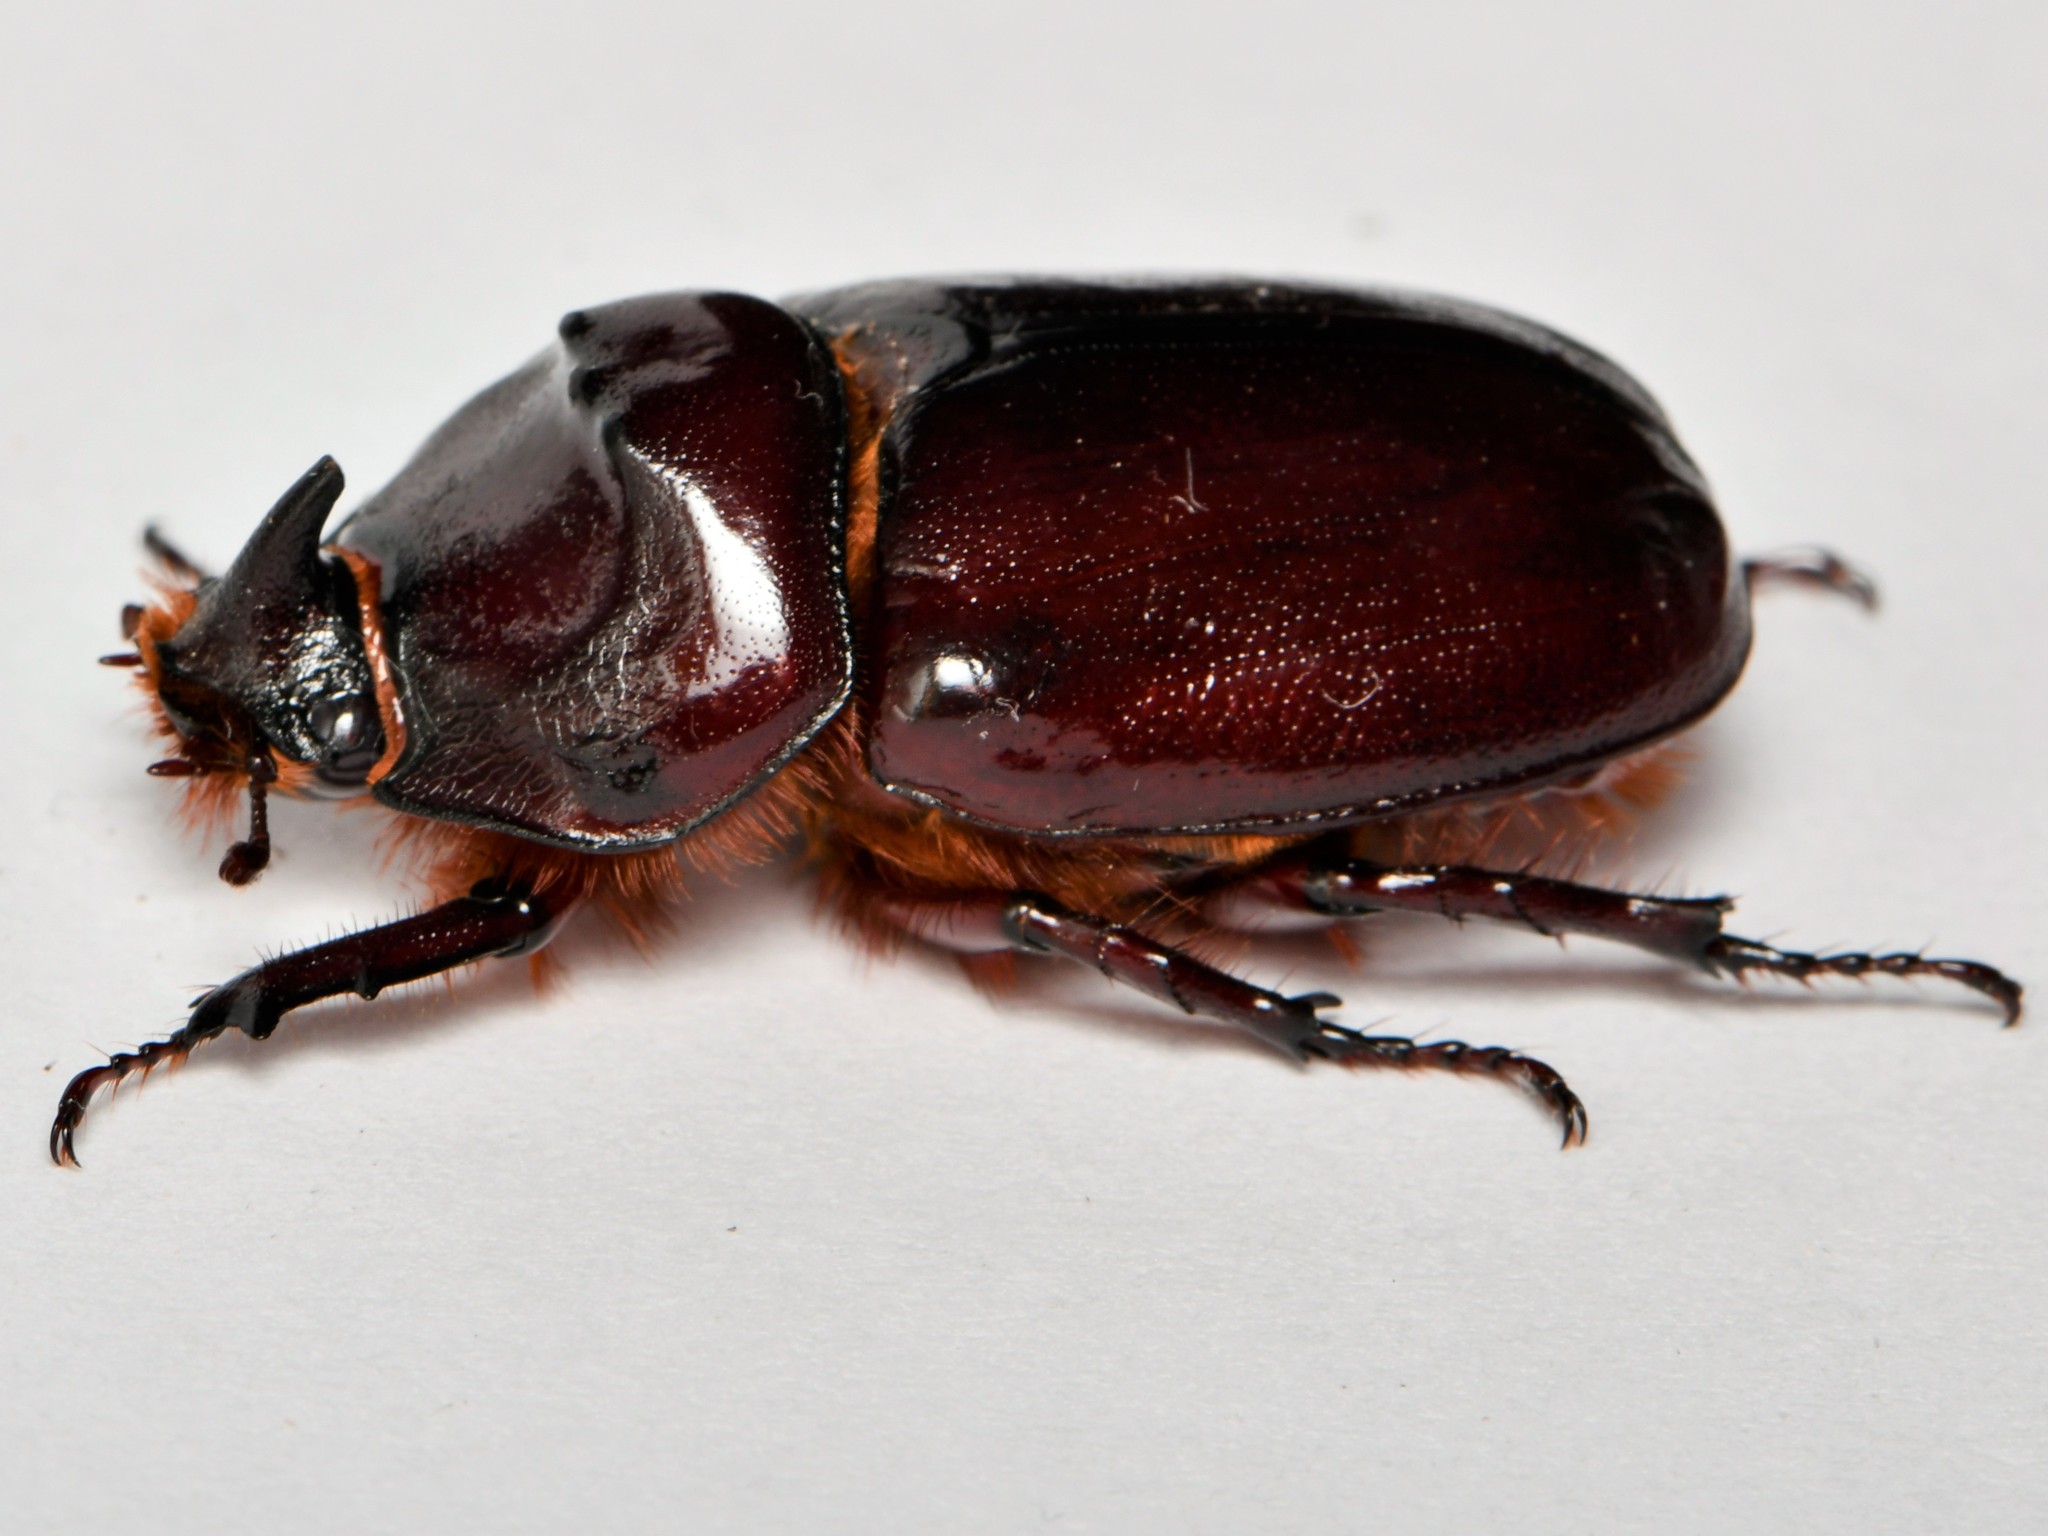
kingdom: Animalia
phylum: Arthropoda
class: Insecta
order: Coleoptera
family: Scarabaeidae
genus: Oryctes
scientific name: Oryctes nasicornis
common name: European rhinoceros beetle
